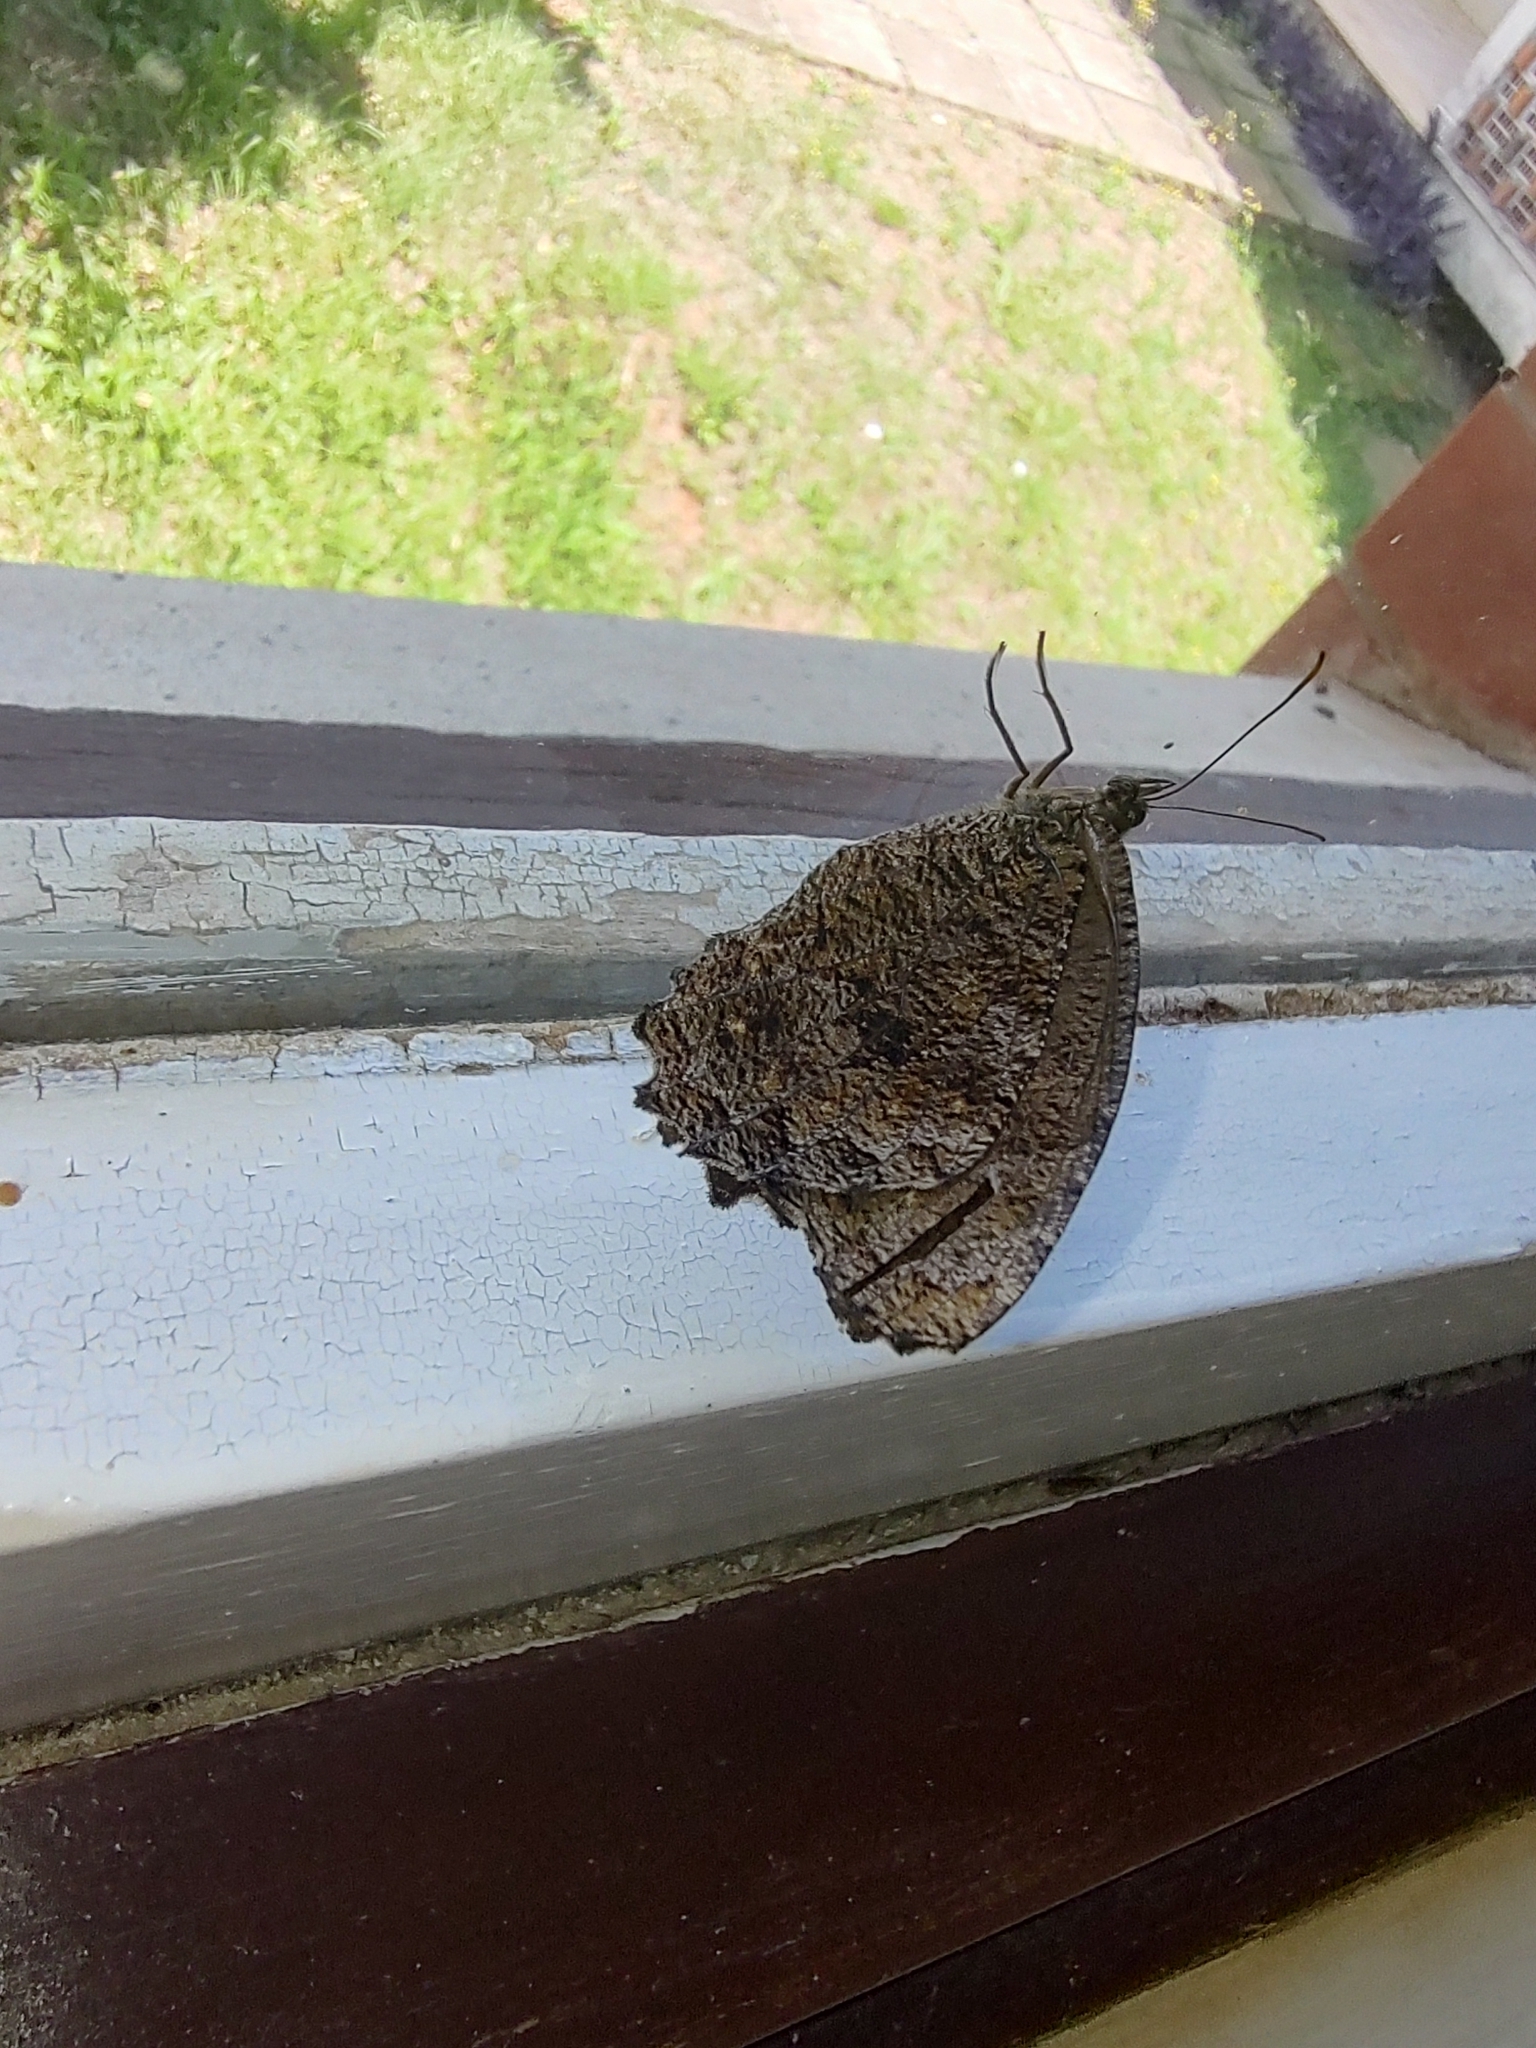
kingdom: Animalia
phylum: Arthropoda
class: Insecta
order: Lepidoptera
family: Nymphalidae
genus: Praepedaliodes
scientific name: Praepedaliodes phanias
